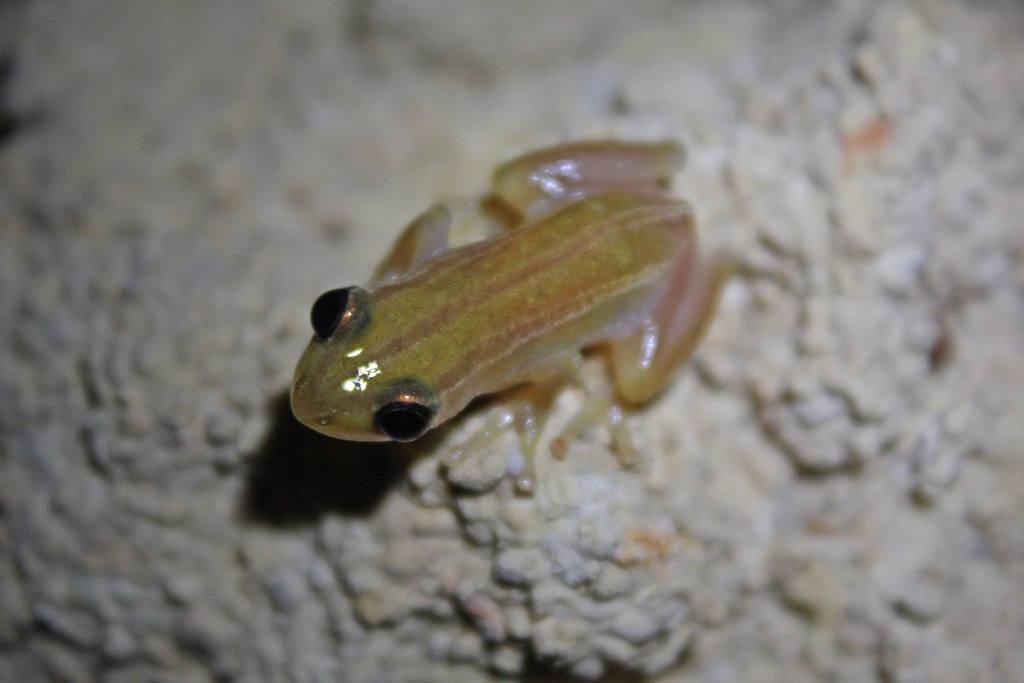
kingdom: Animalia
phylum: Chordata
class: Amphibia
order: Anura
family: Hyperoliidae
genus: Afrixalus
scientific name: Afrixalus vittiger
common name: Spiny reed frog
